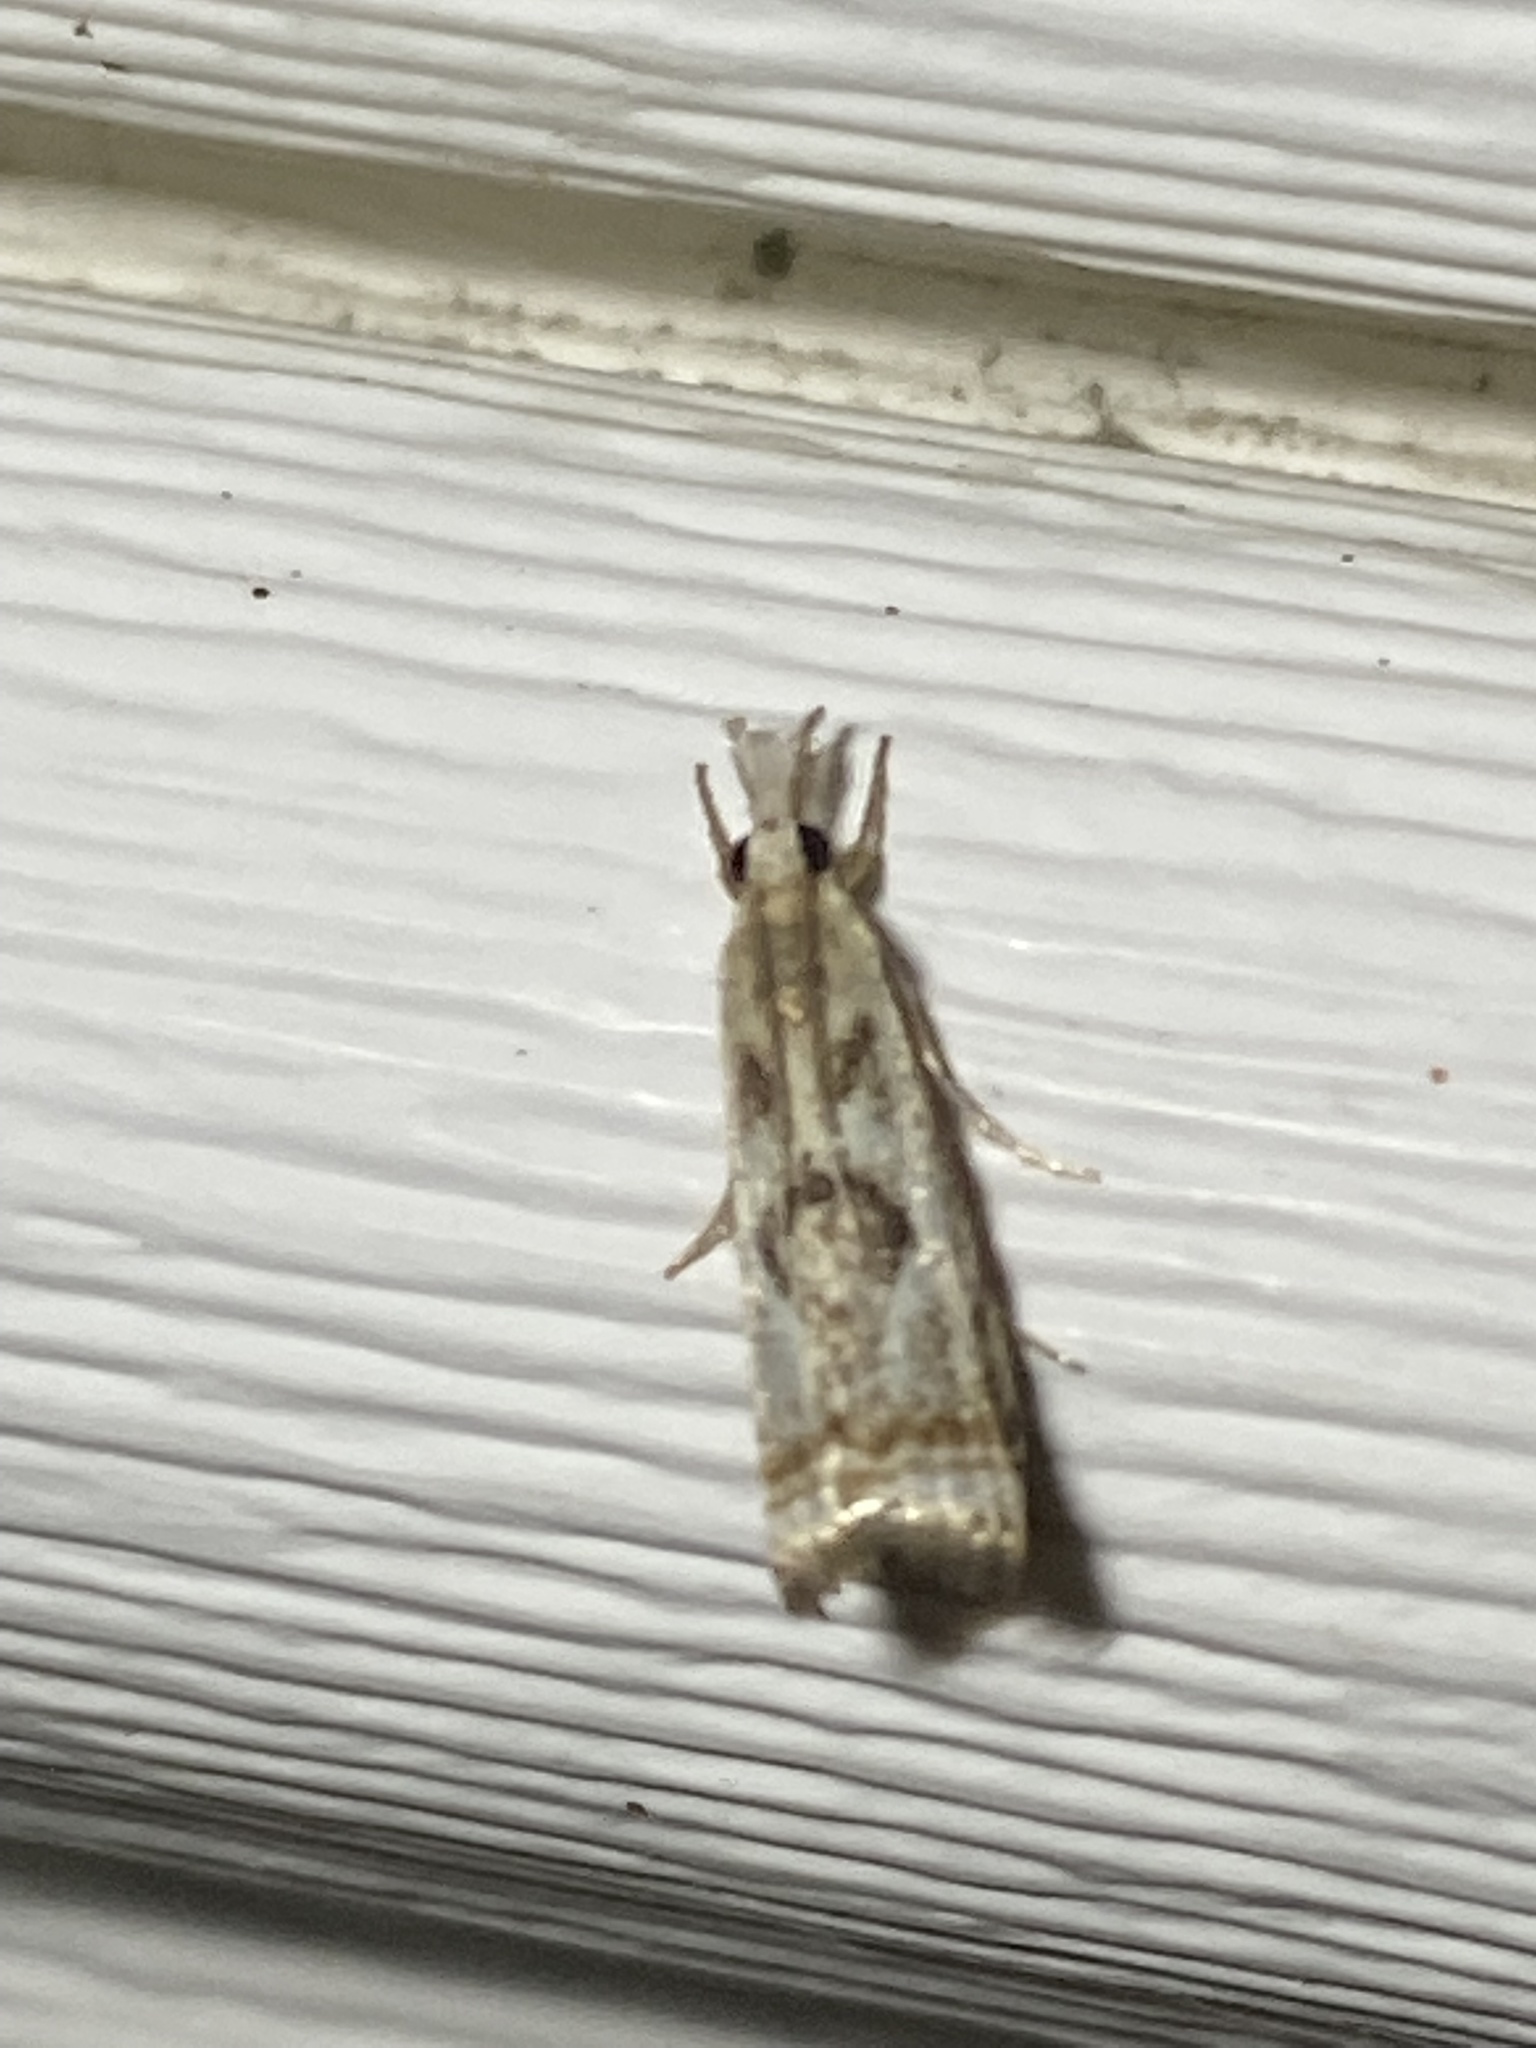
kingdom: Animalia
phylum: Arthropoda
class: Insecta
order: Lepidoptera
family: Crambidae
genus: Microcrambus
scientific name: Microcrambus elegans
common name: Elegant grass-veneer
